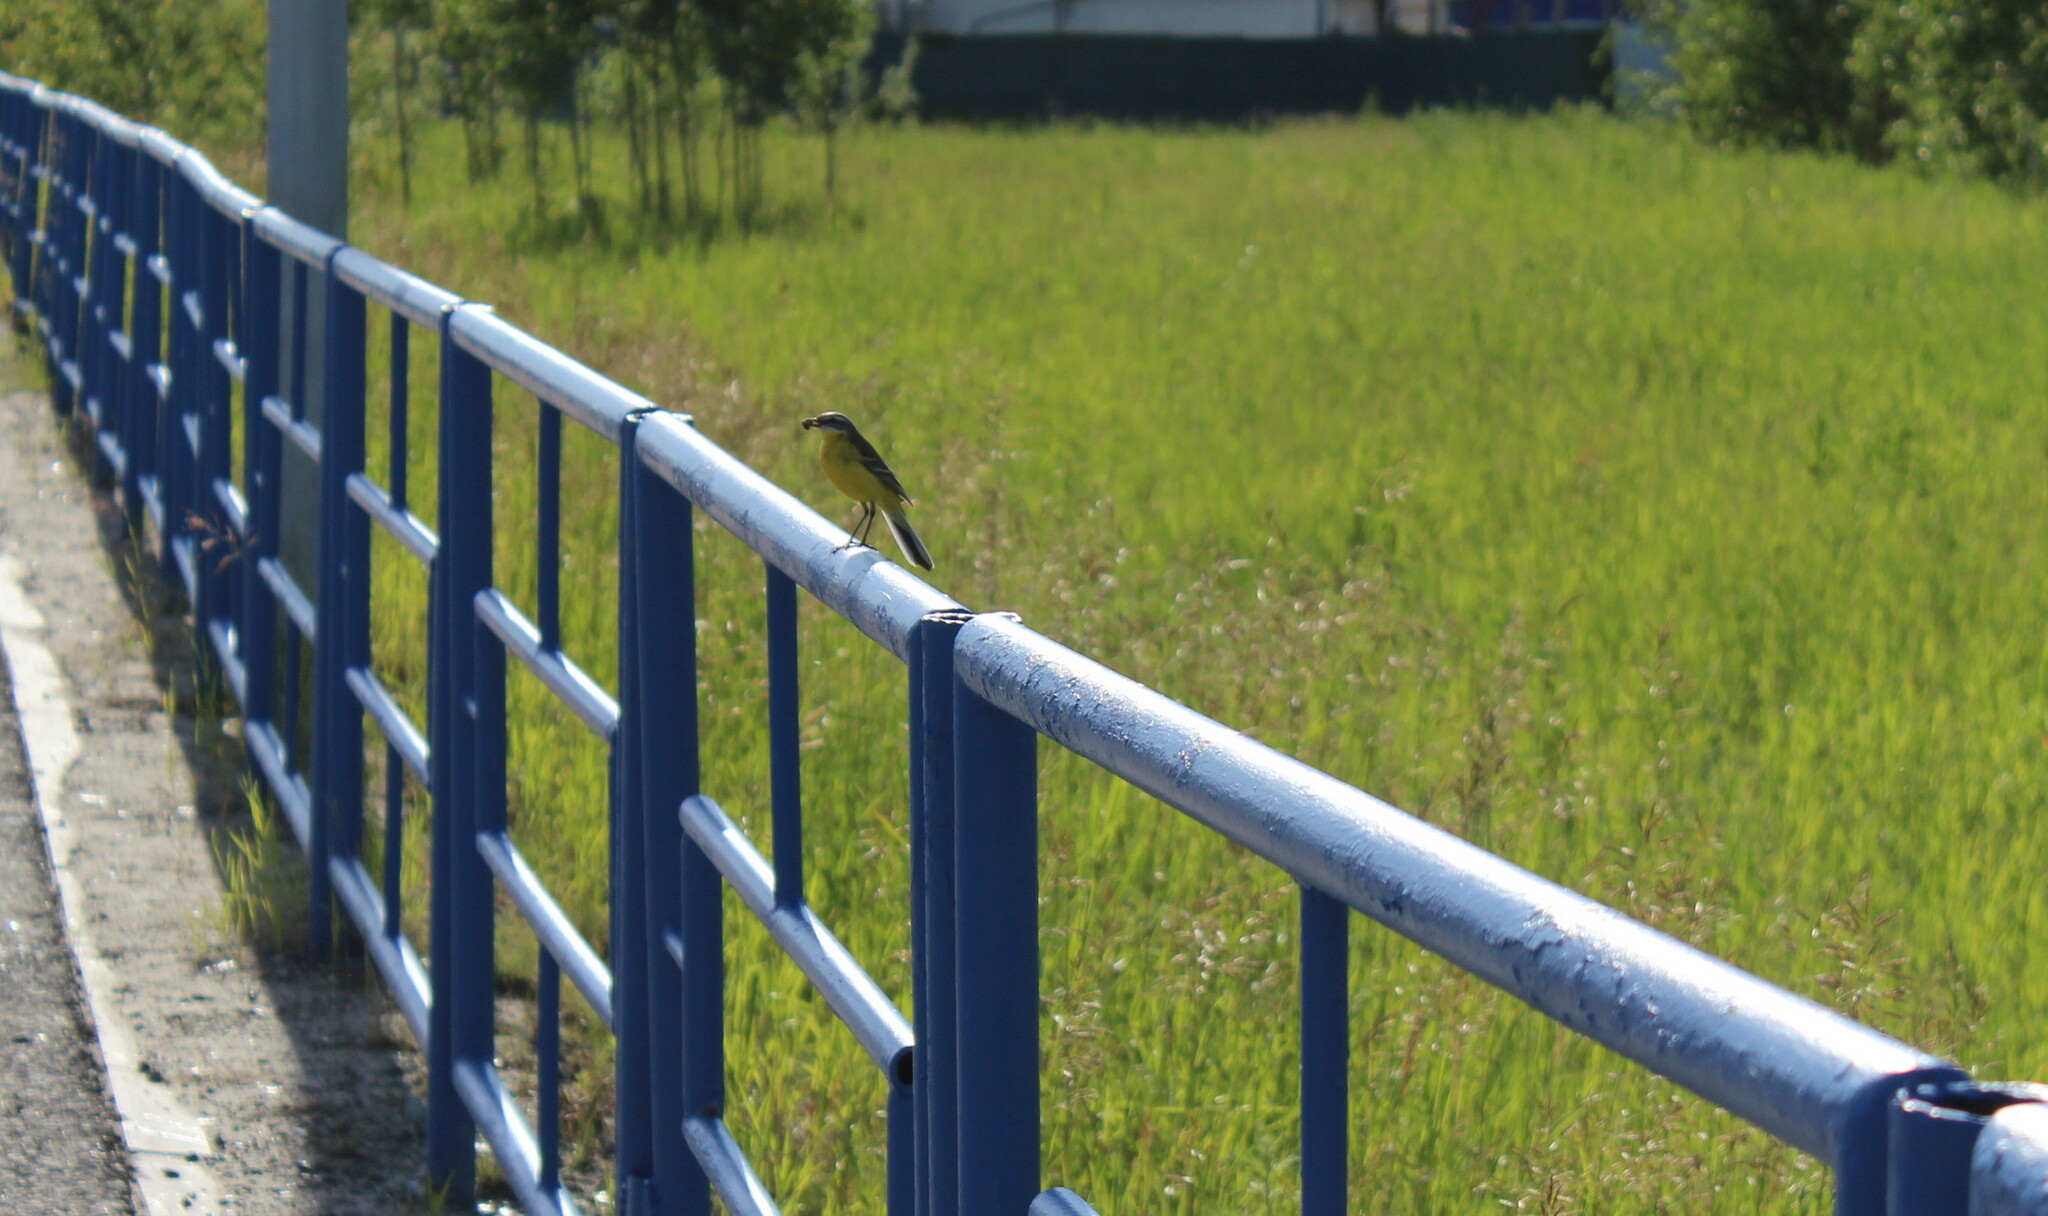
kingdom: Animalia
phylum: Chordata
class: Aves
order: Passeriformes
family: Motacillidae
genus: Motacilla
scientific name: Motacilla flava
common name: Western yellow wagtail
